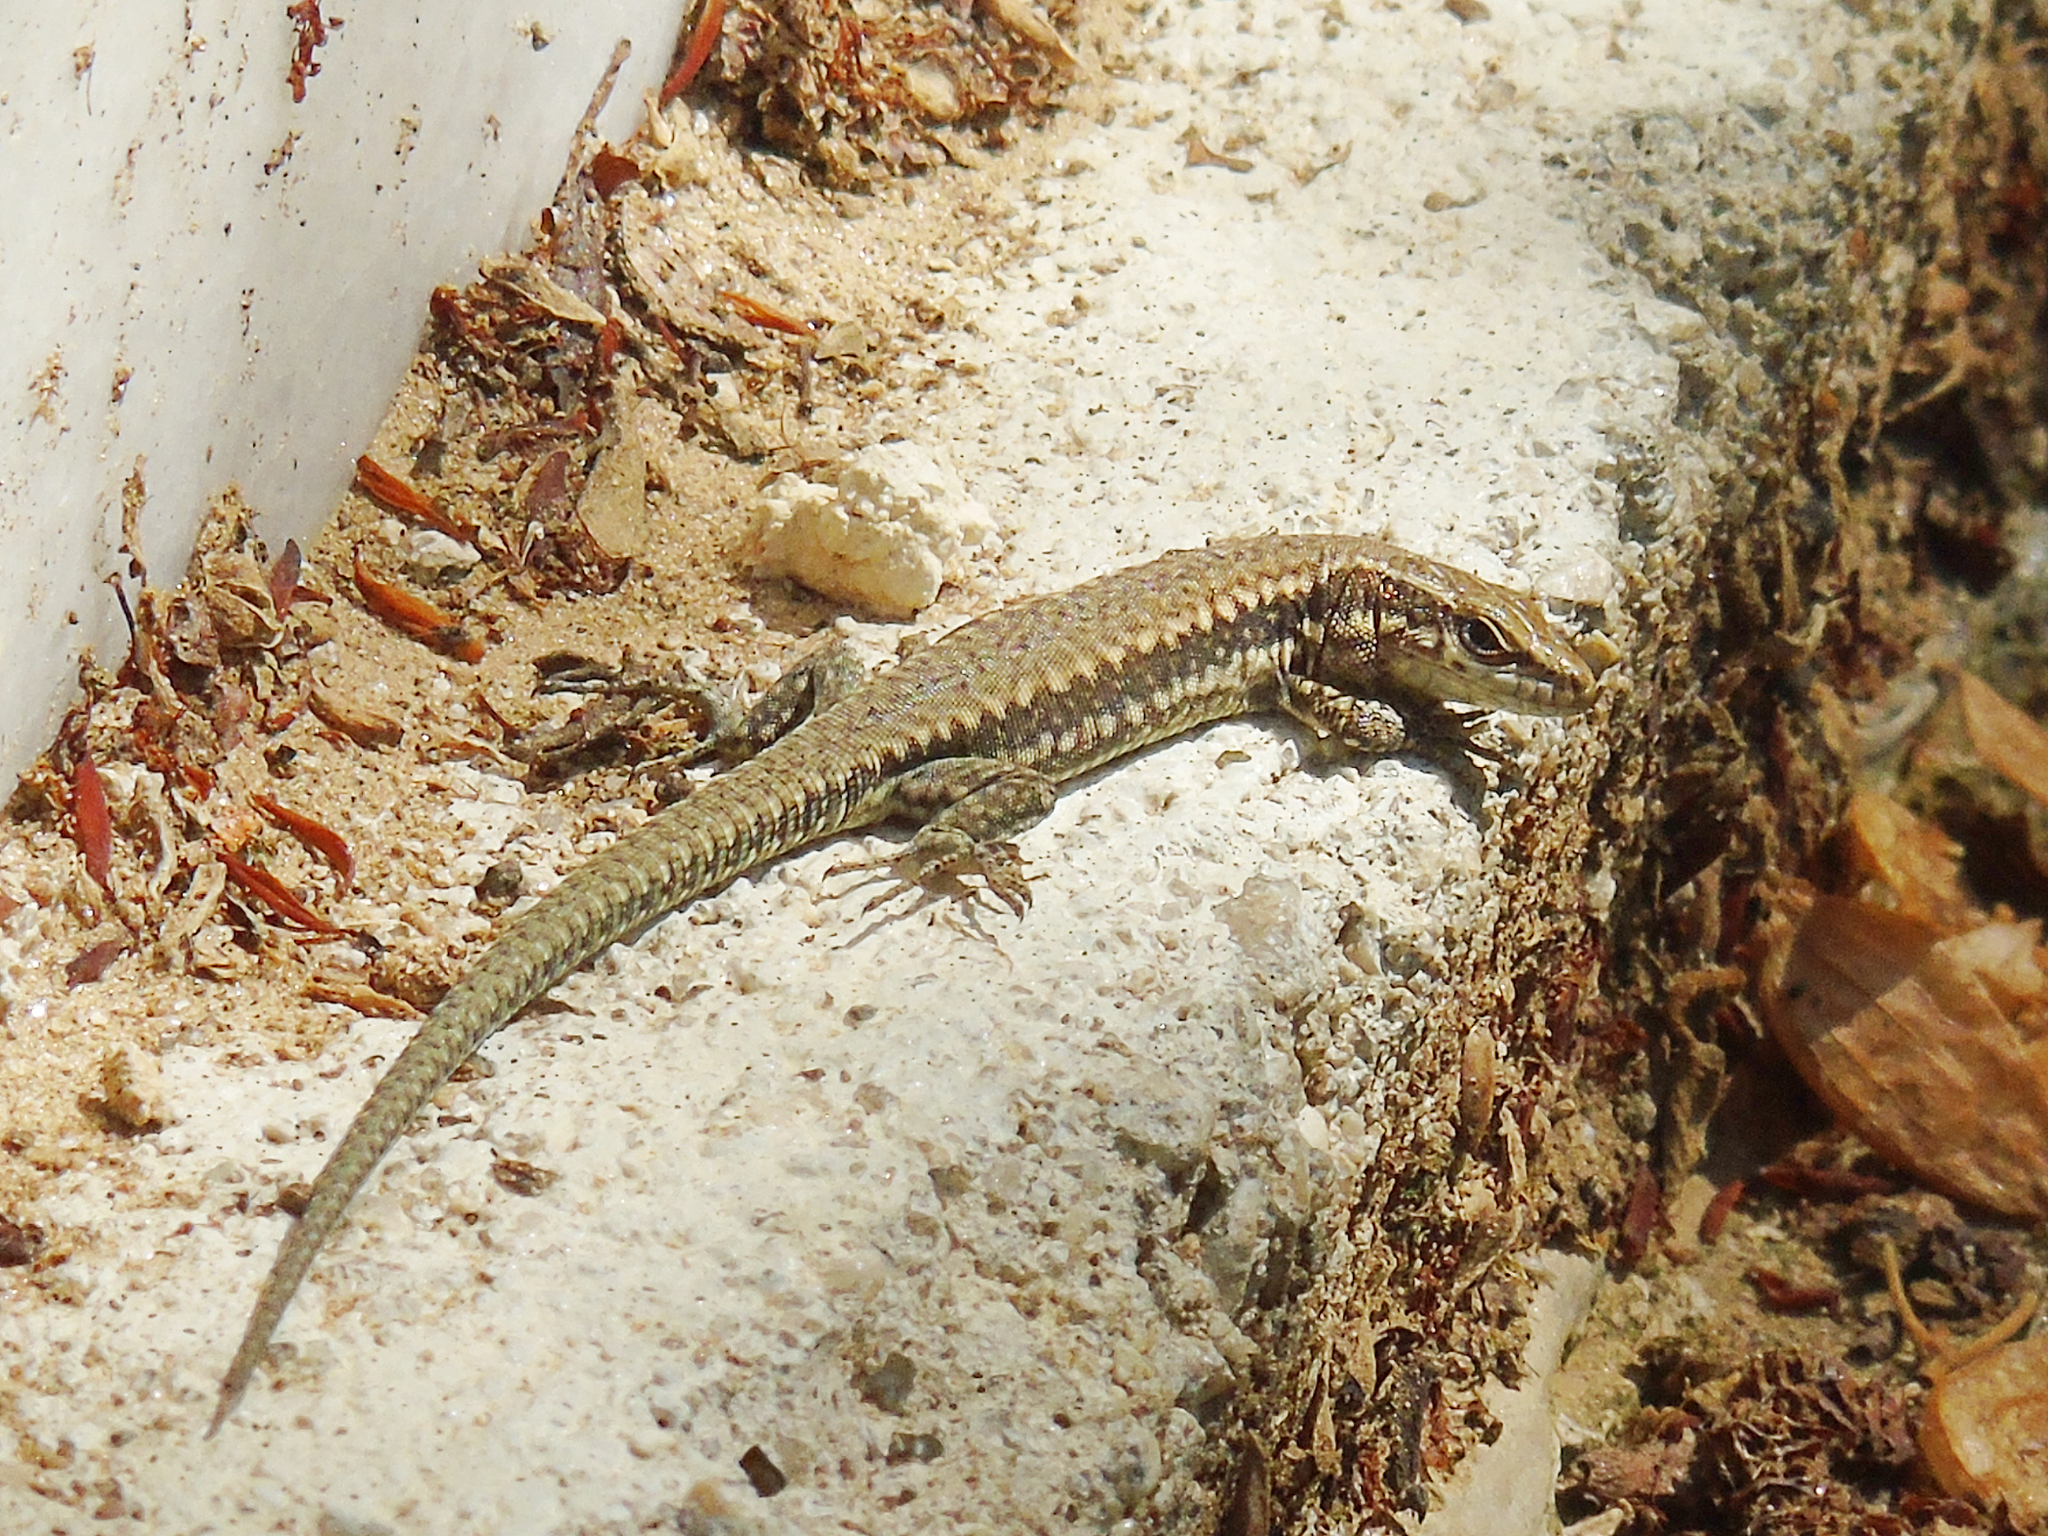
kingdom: Animalia
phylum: Chordata
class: Squamata
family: Lacertidae
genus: Podarcis
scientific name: Podarcis muralis
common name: Common wall lizard
